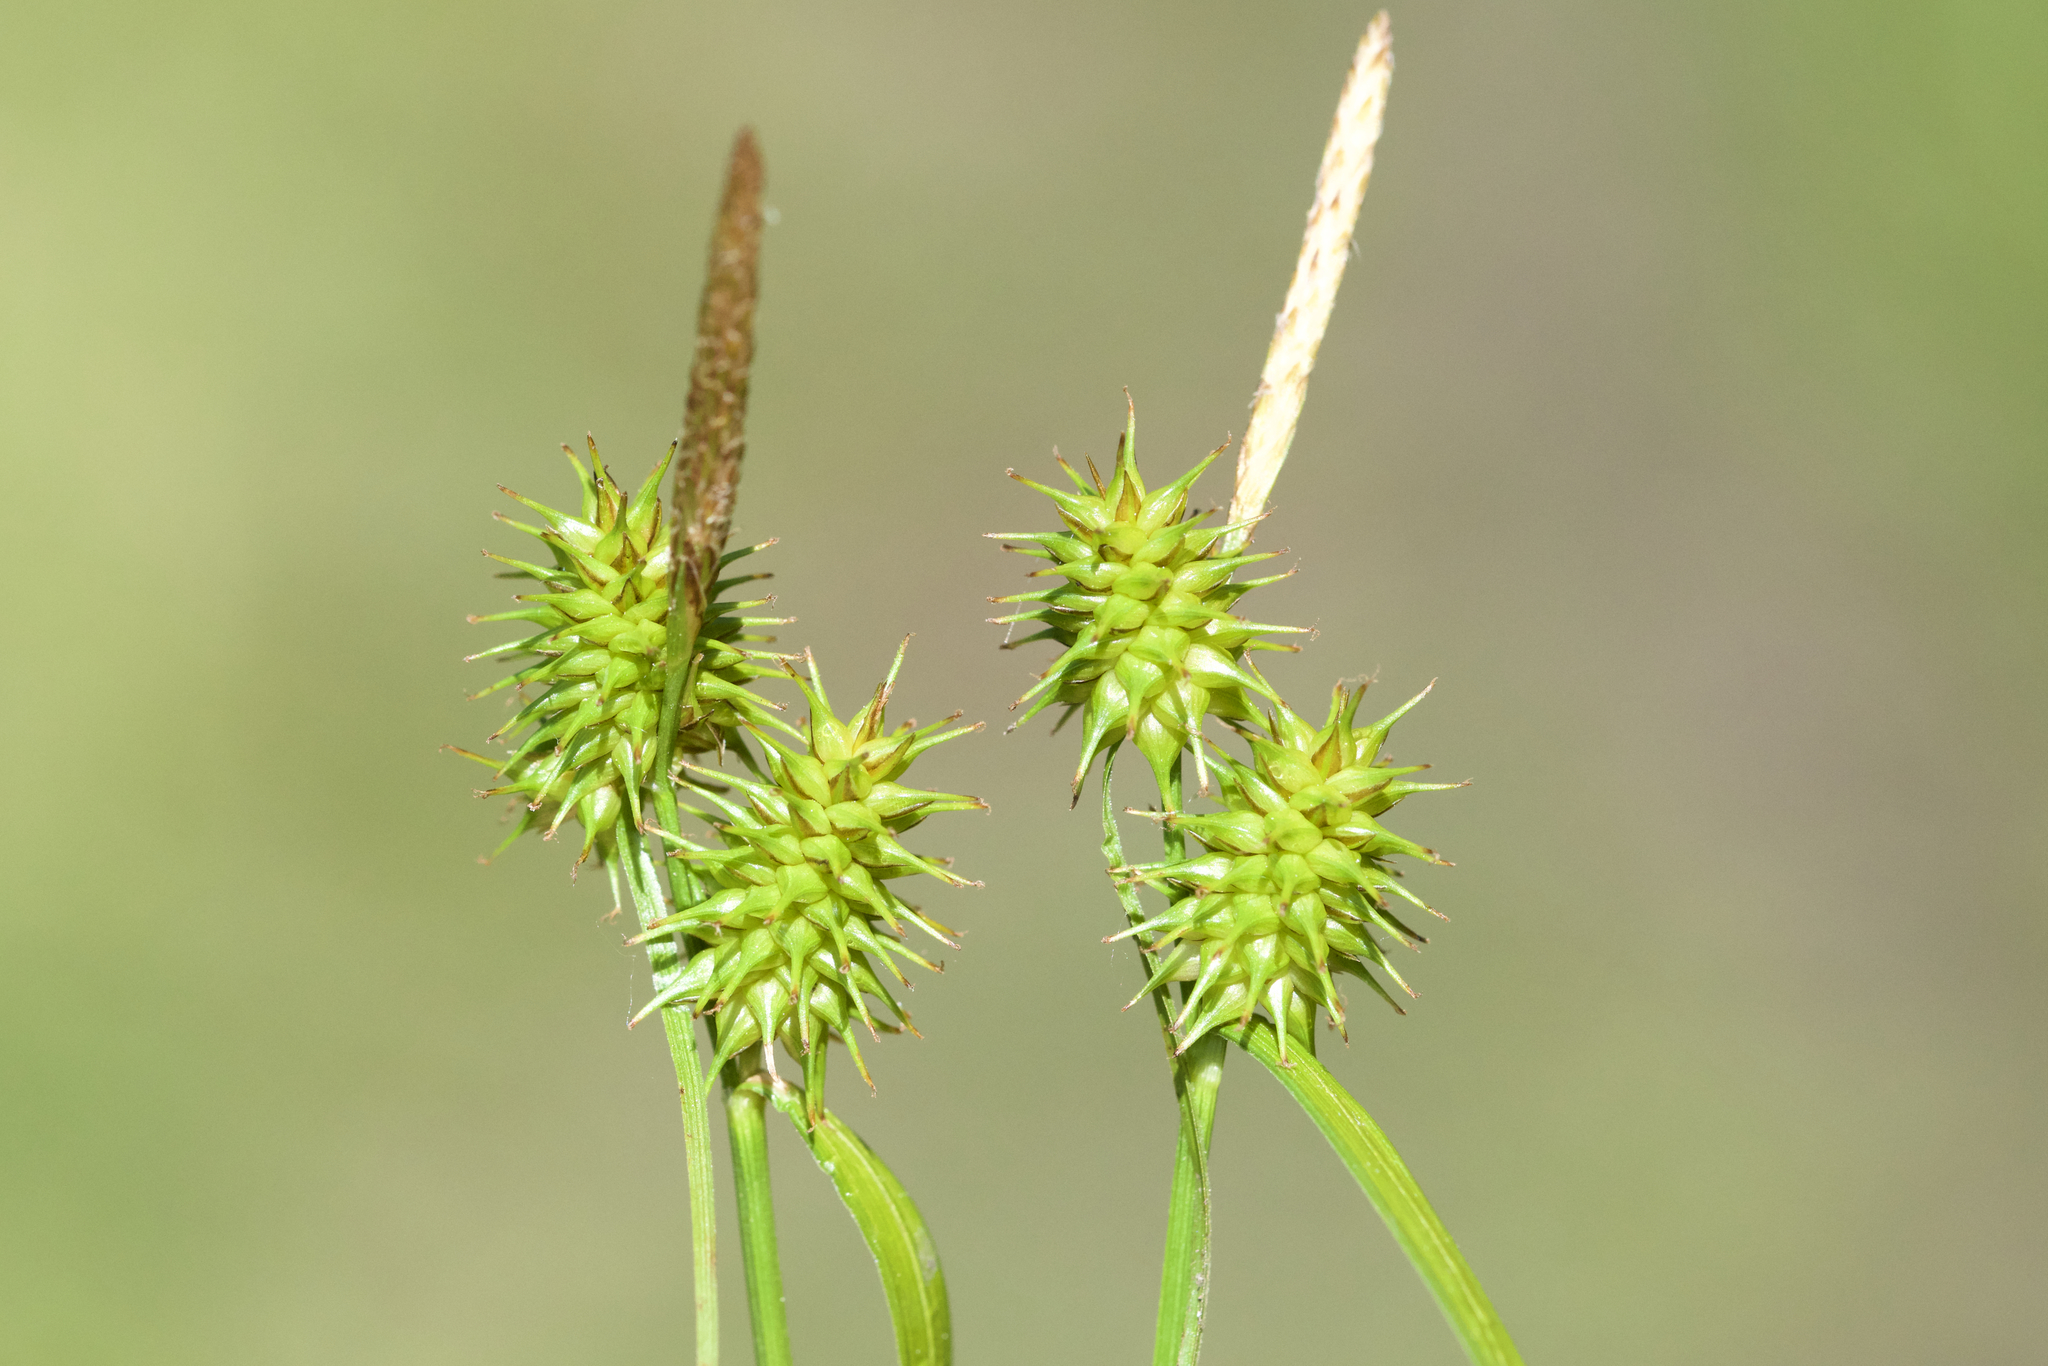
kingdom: Plantae
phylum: Tracheophyta
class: Liliopsida
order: Poales
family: Cyperaceae
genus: Carex
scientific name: Carex flava
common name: Large yellow-sedge
